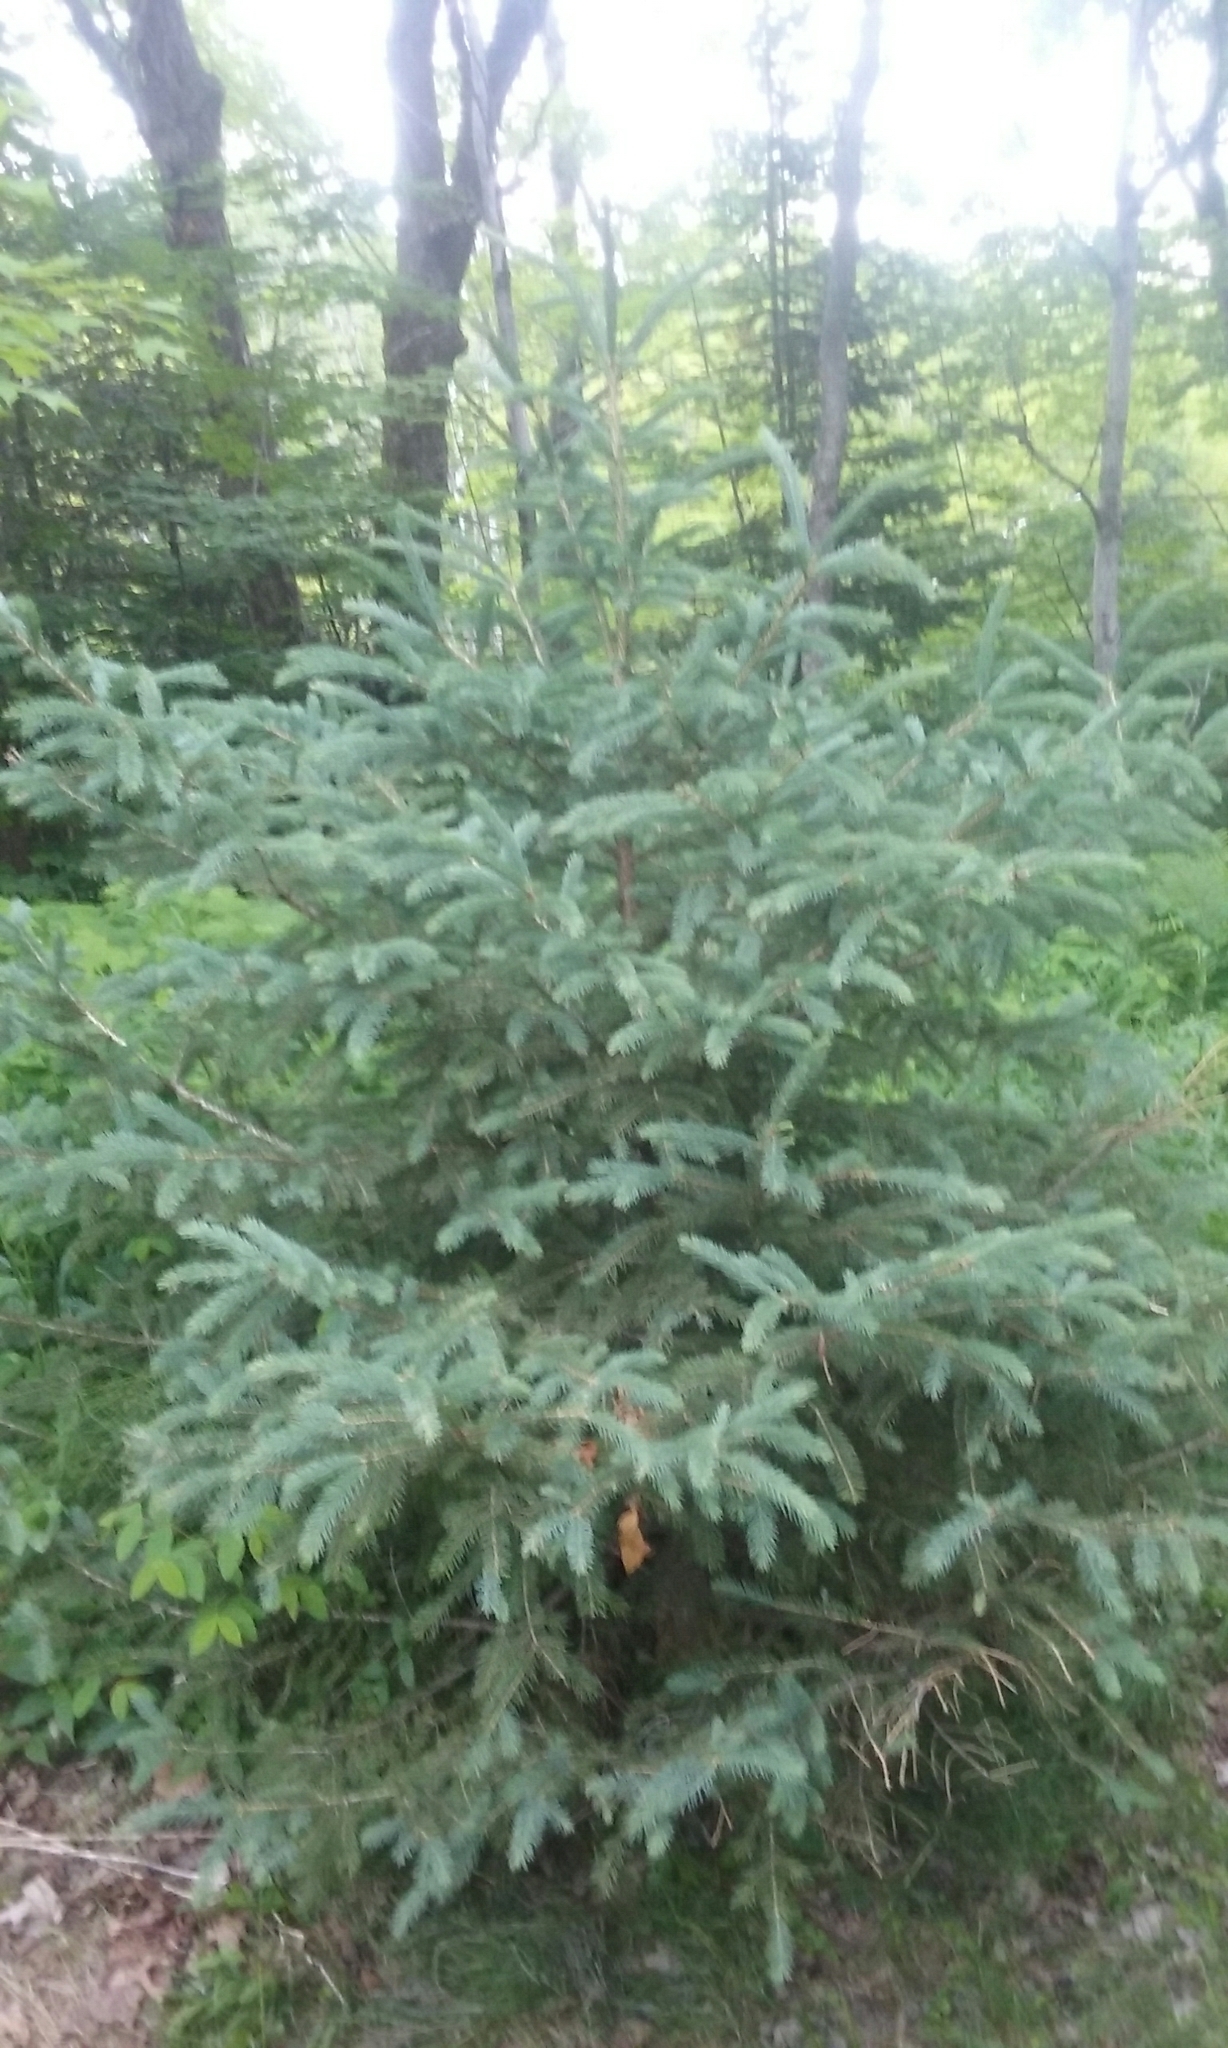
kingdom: Plantae
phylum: Tracheophyta
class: Pinopsida
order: Pinales
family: Pinaceae
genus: Picea
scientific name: Picea glauca
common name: White spruce
